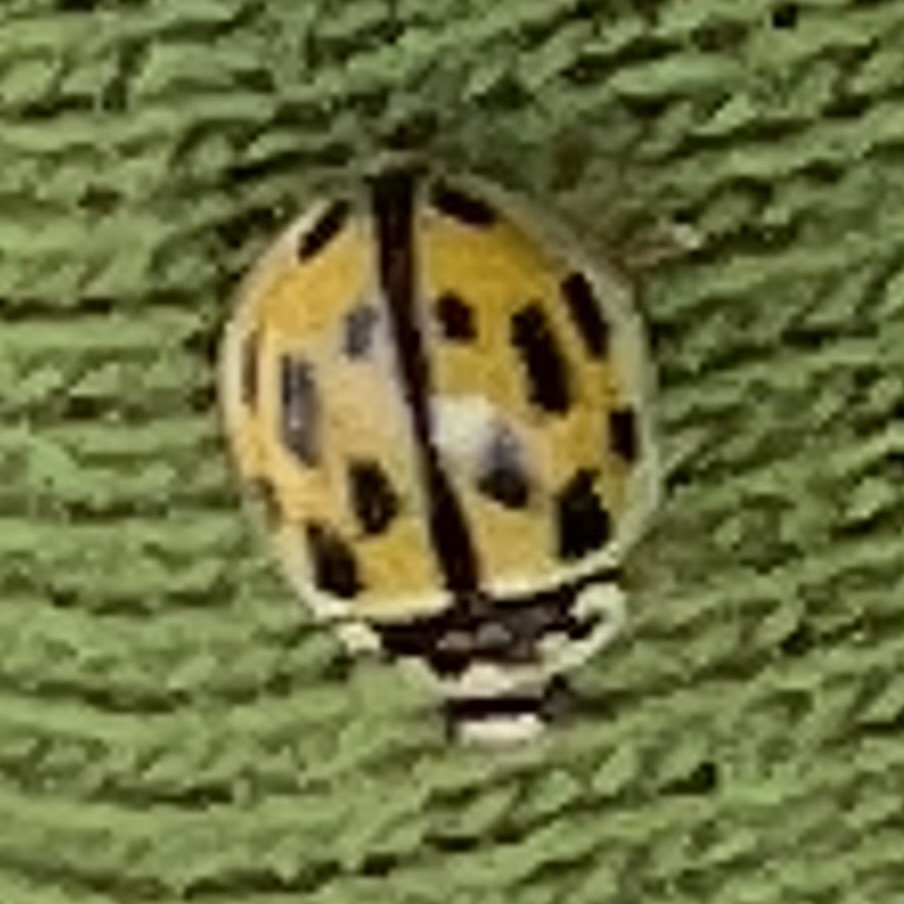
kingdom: Animalia
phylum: Arthropoda
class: Insecta
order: Coleoptera
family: Coccinellidae
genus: Propylaea
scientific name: Propylaea quatuordecimpunctata
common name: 14-spotted ladybird beetle
